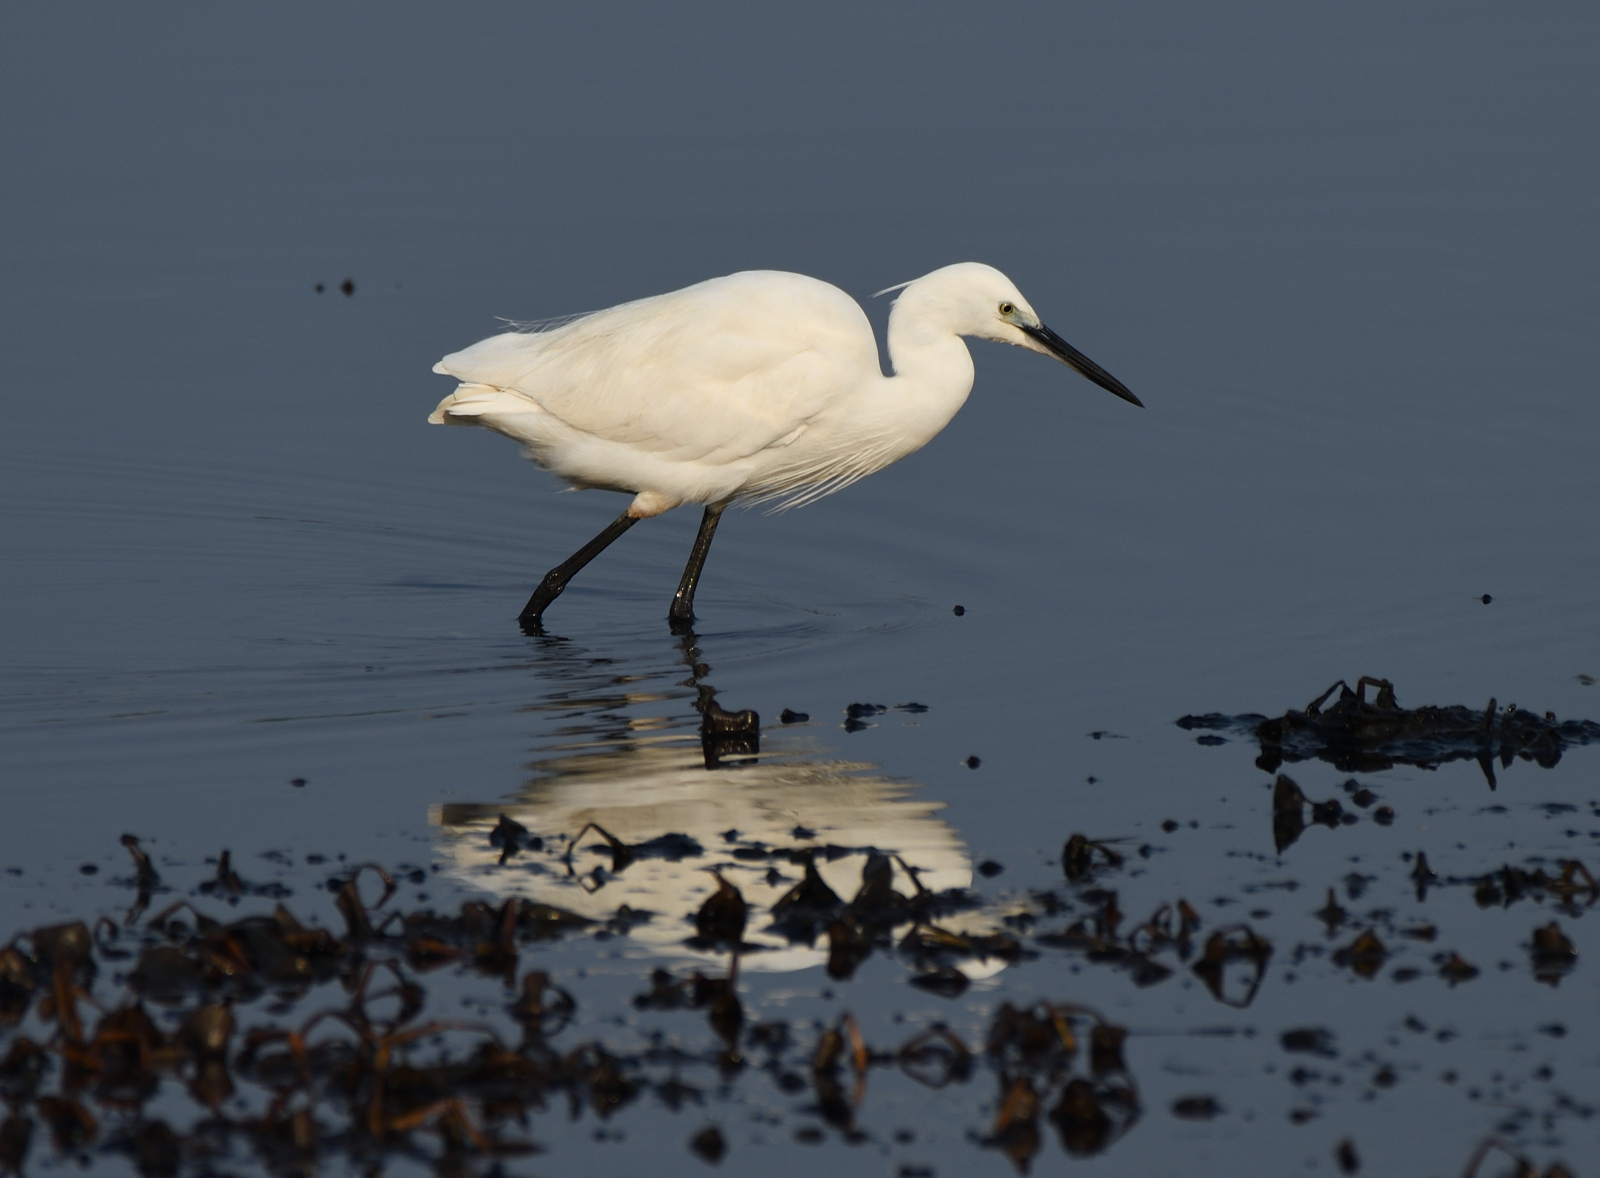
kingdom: Animalia
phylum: Chordata
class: Aves
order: Pelecaniformes
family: Ardeidae
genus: Egretta
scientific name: Egretta garzetta
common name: Little egret
